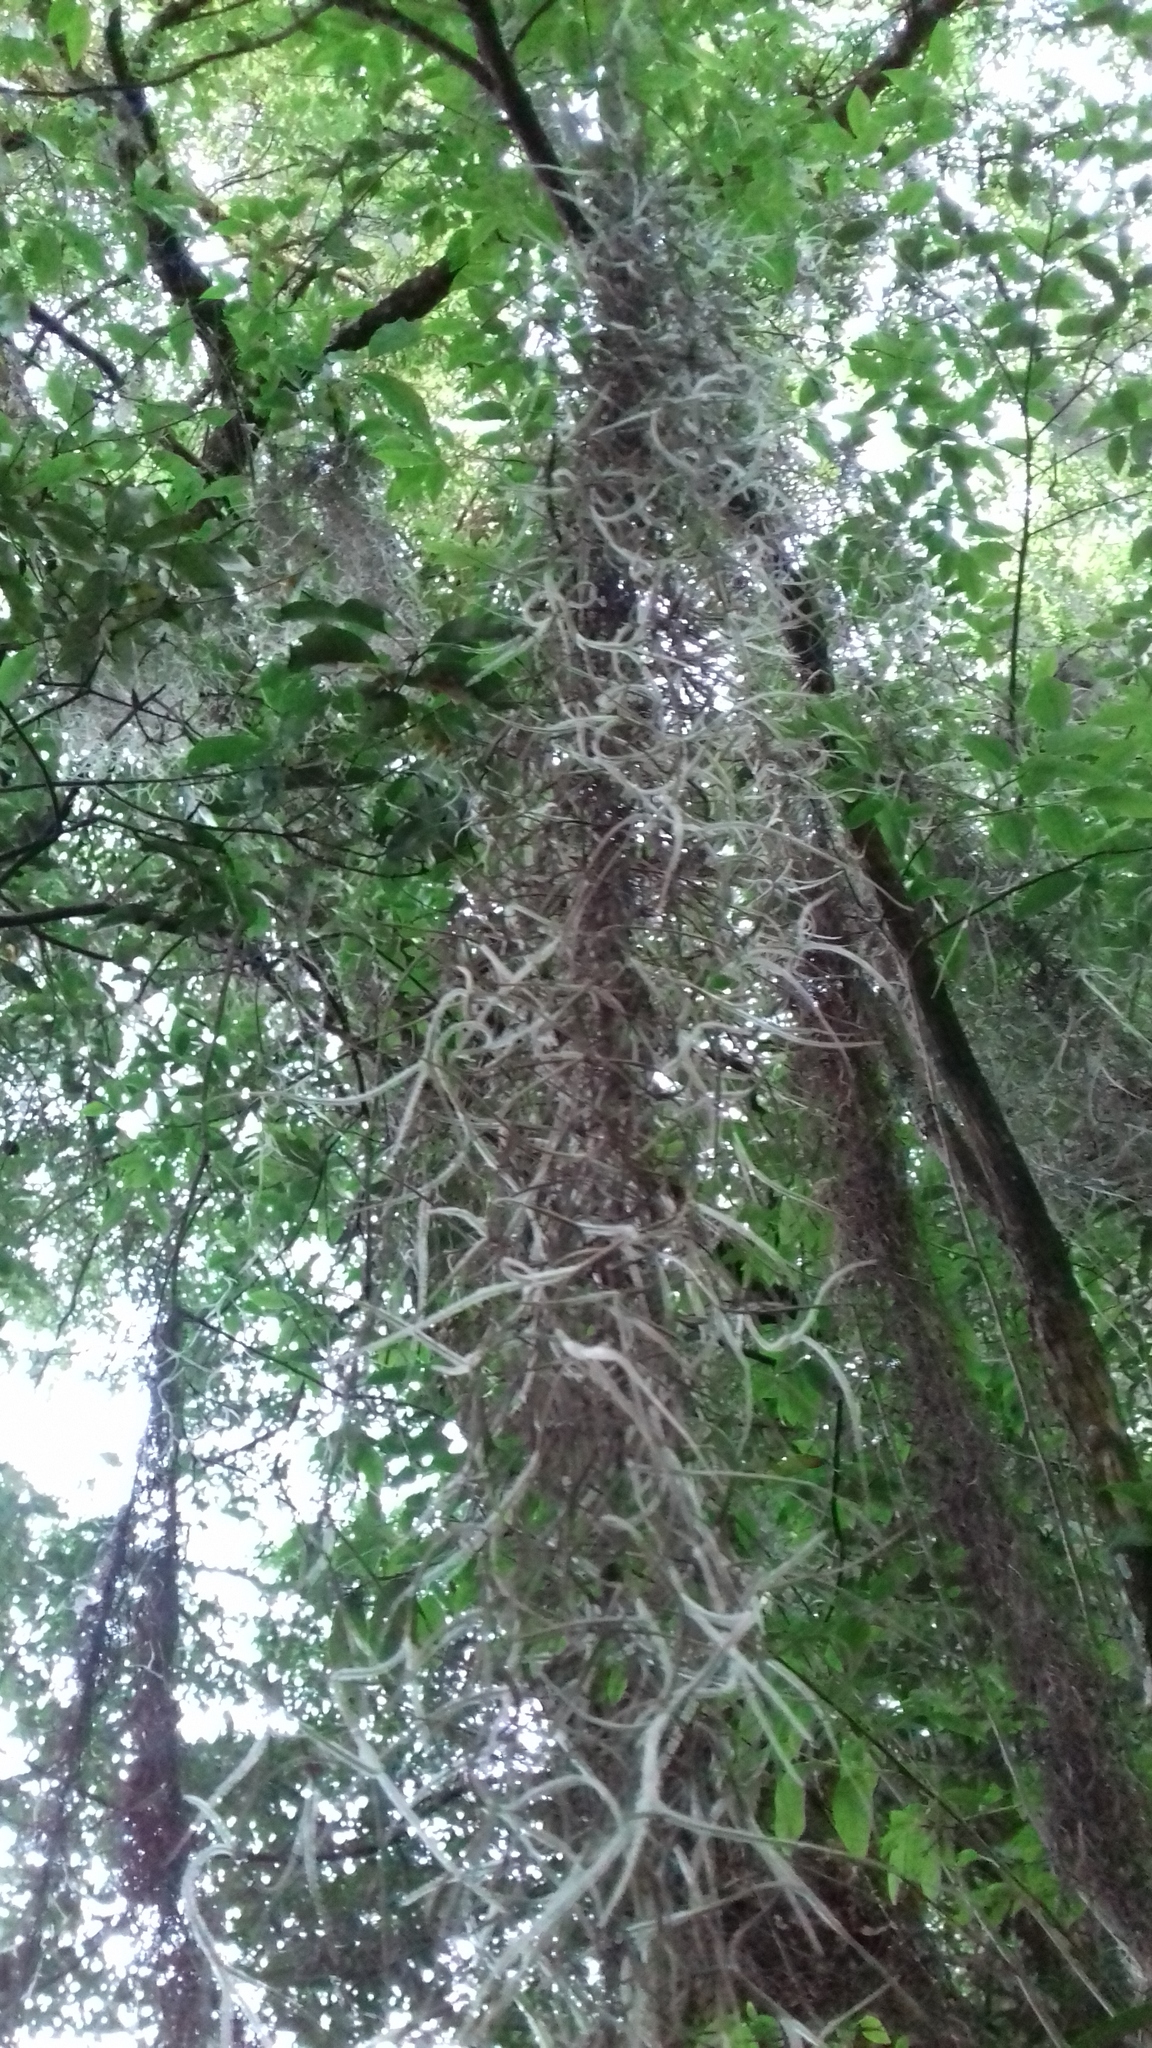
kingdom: Plantae
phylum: Tracheophyta
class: Liliopsida
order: Poales
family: Bromeliaceae
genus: Tillandsia
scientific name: Tillandsia usneoides
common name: Spanish moss
